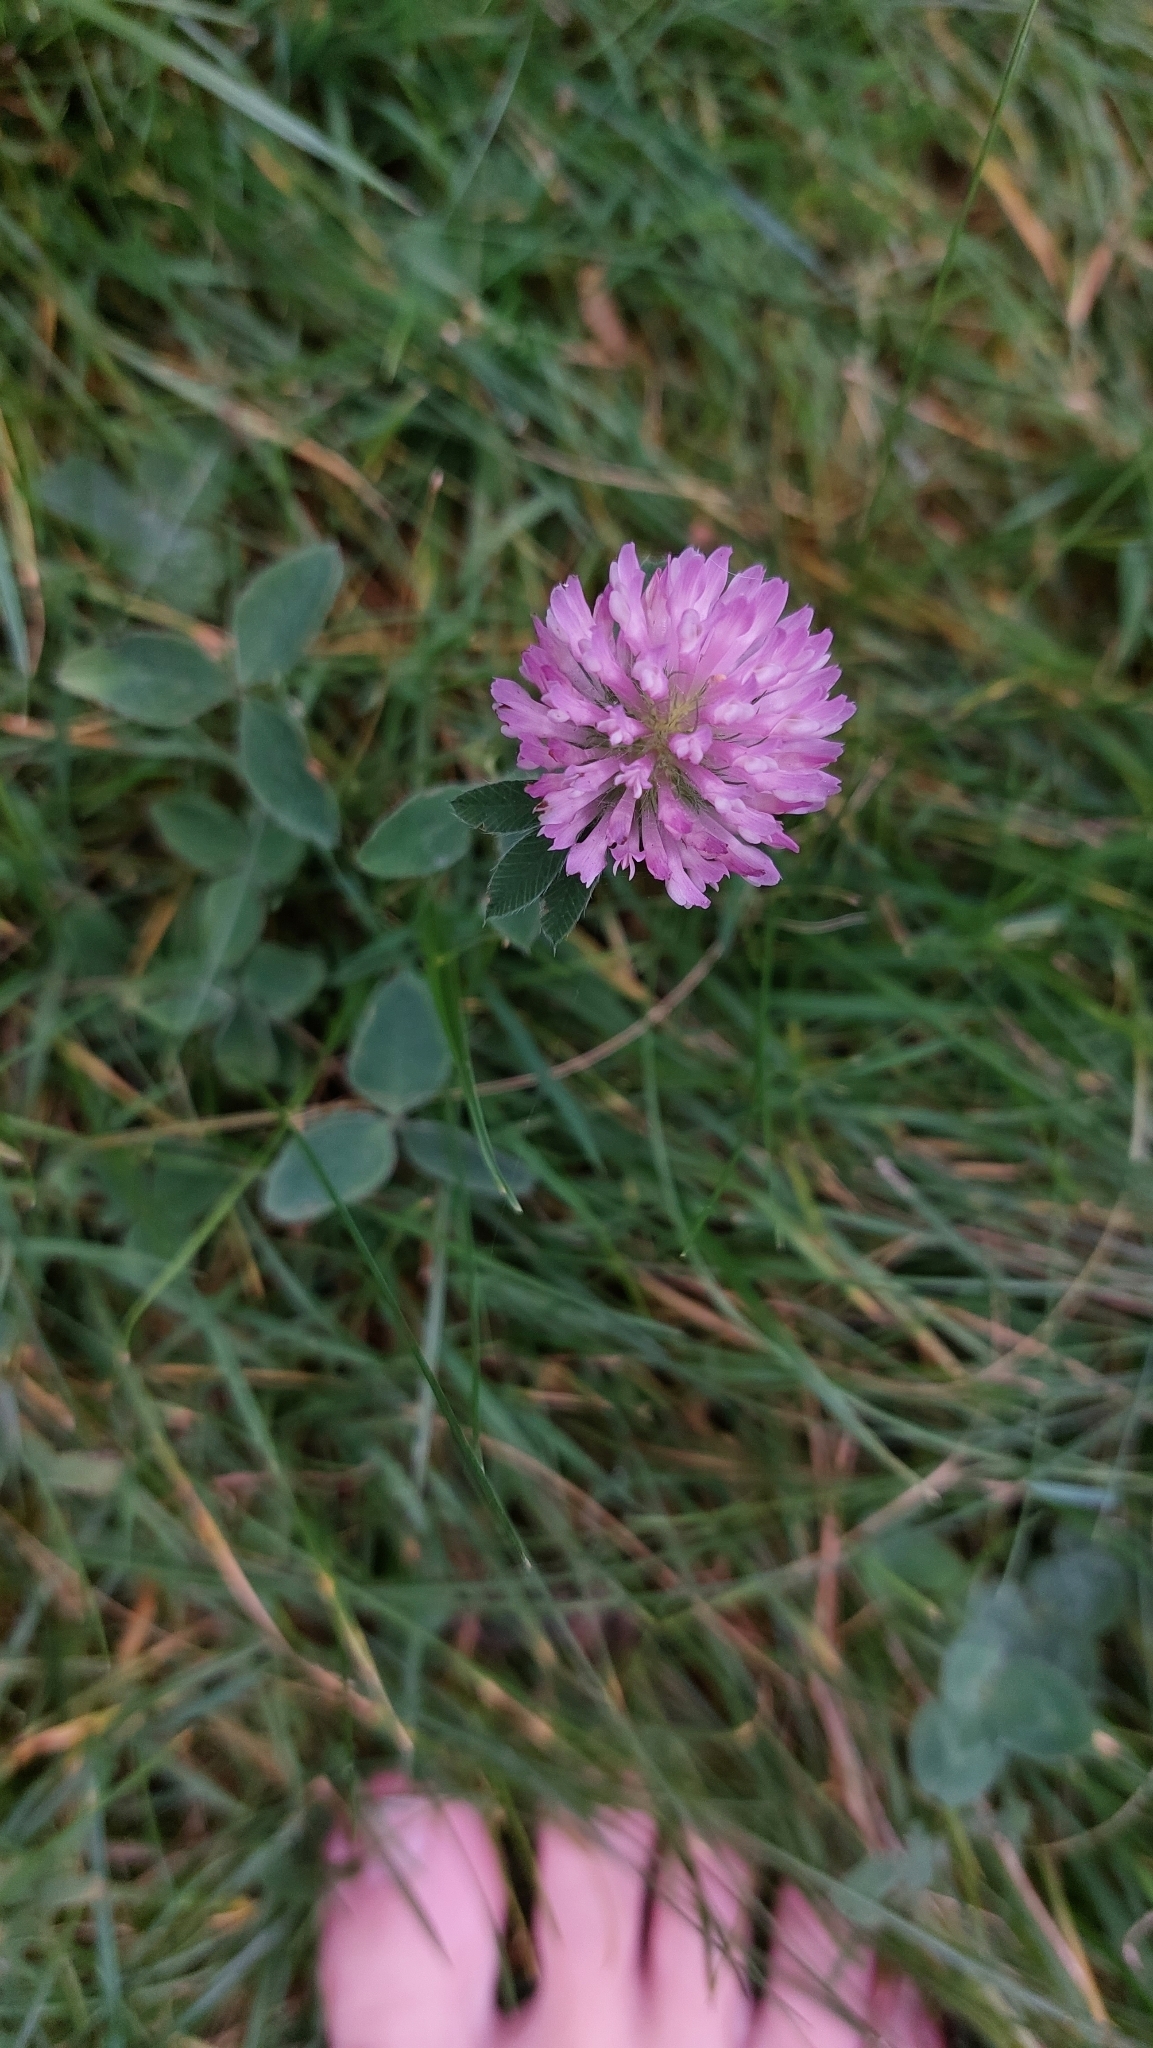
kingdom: Plantae
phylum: Tracheophyta
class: Magnoliopsida
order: Fabales
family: Fabaceae
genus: Trifolium
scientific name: Trifolium pratense
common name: Red clover
